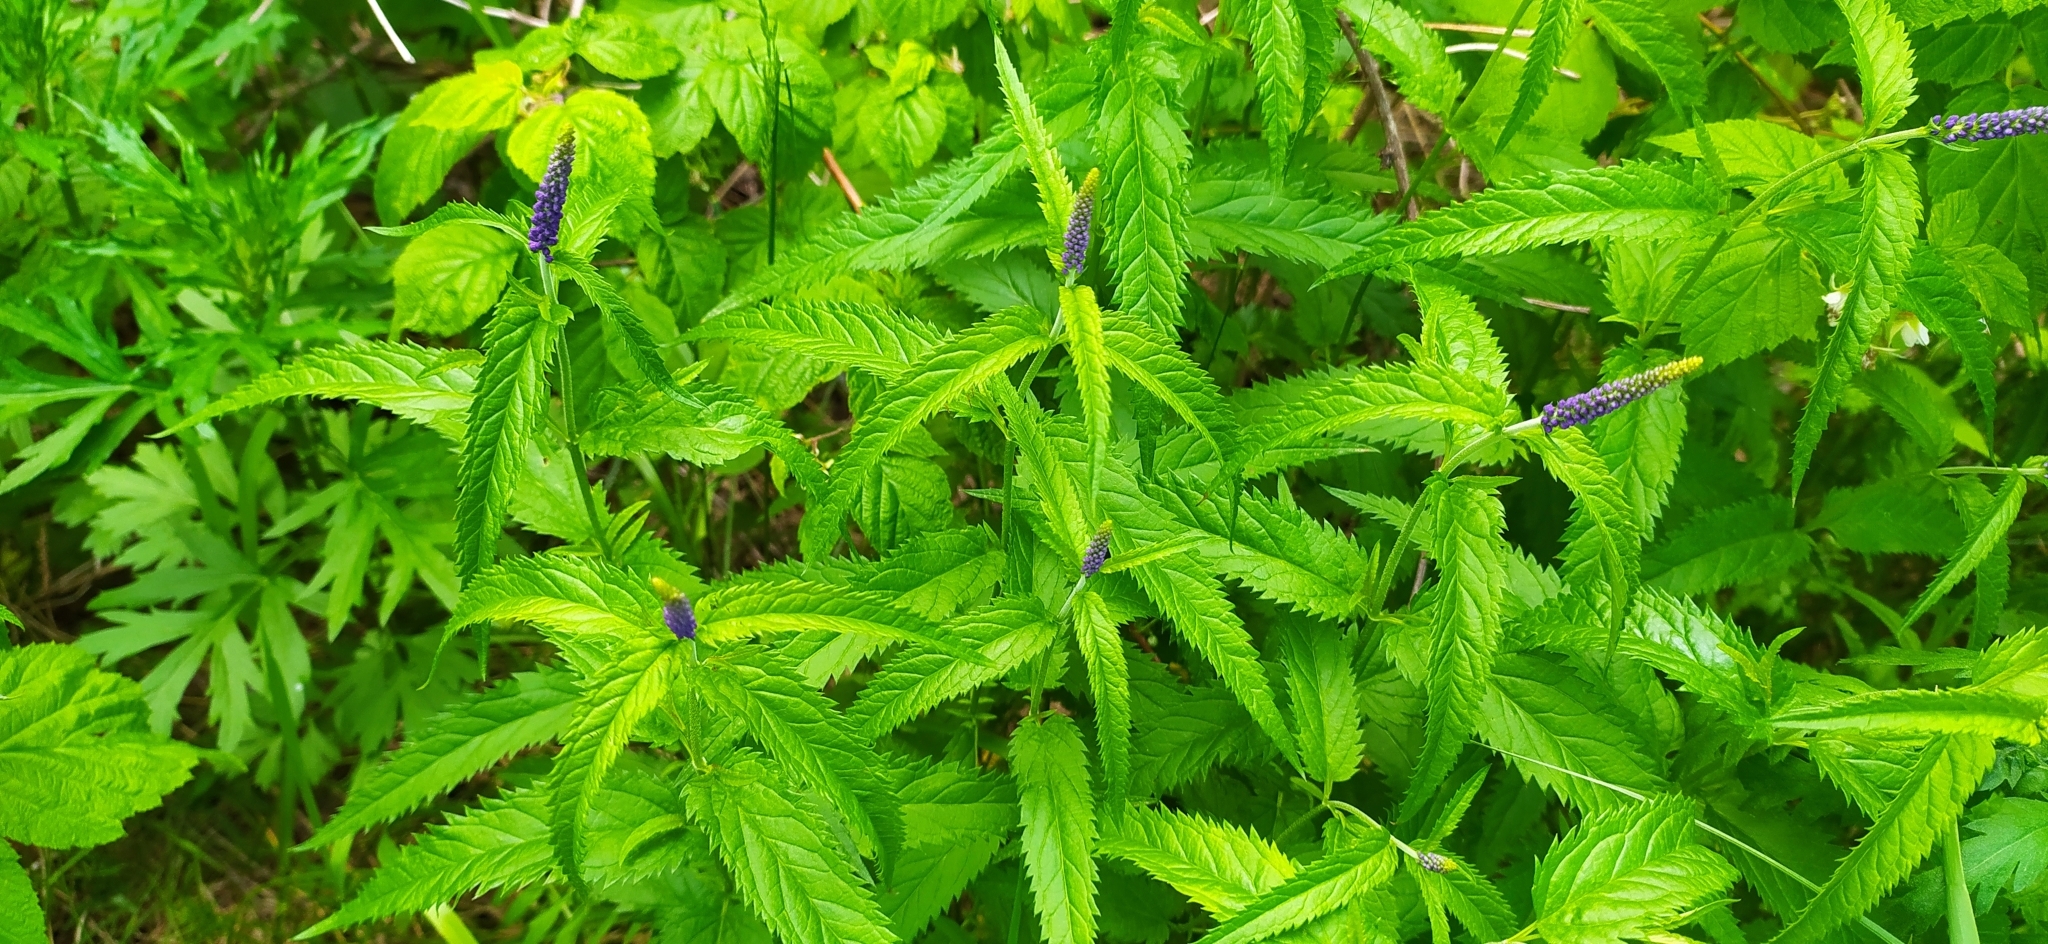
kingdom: Plantae
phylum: Tracheophyta
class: Magnoliopsida
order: Lamiales
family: Plantaginaceae
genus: Veronica
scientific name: Veronica longifolia
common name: Garden speedwell
